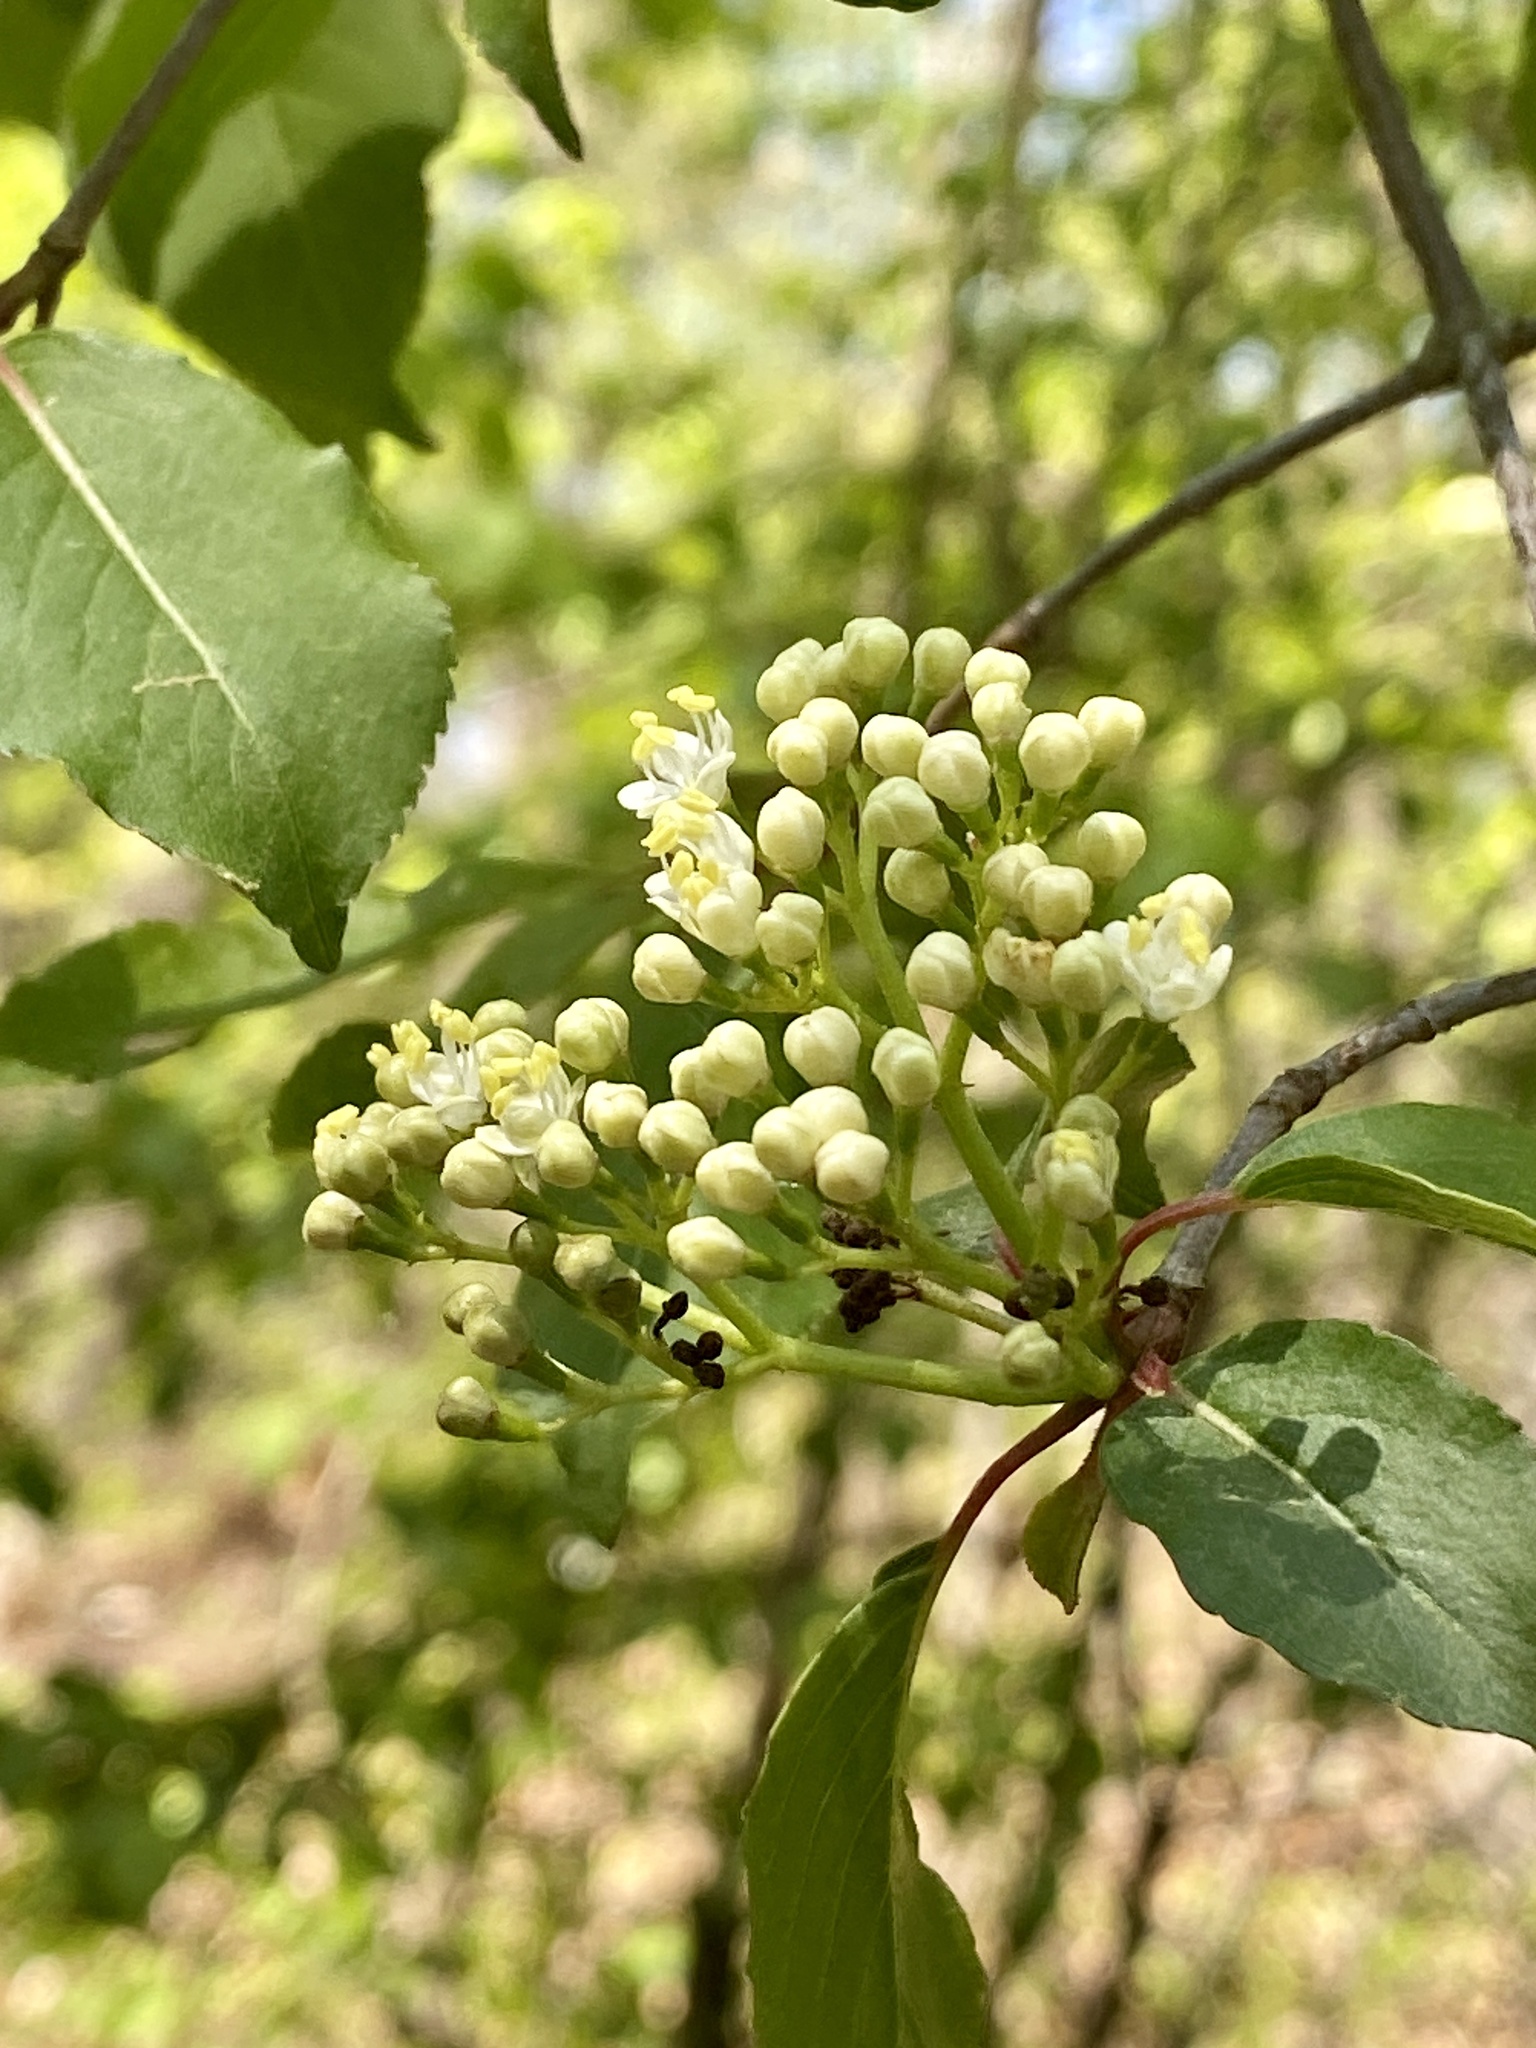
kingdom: Plantae
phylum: Tracheophyta
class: Magnoliopsida
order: Dipsacales
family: Viburnaceae
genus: Viburnum
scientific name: Viburnum prunifolium
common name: Black haw
